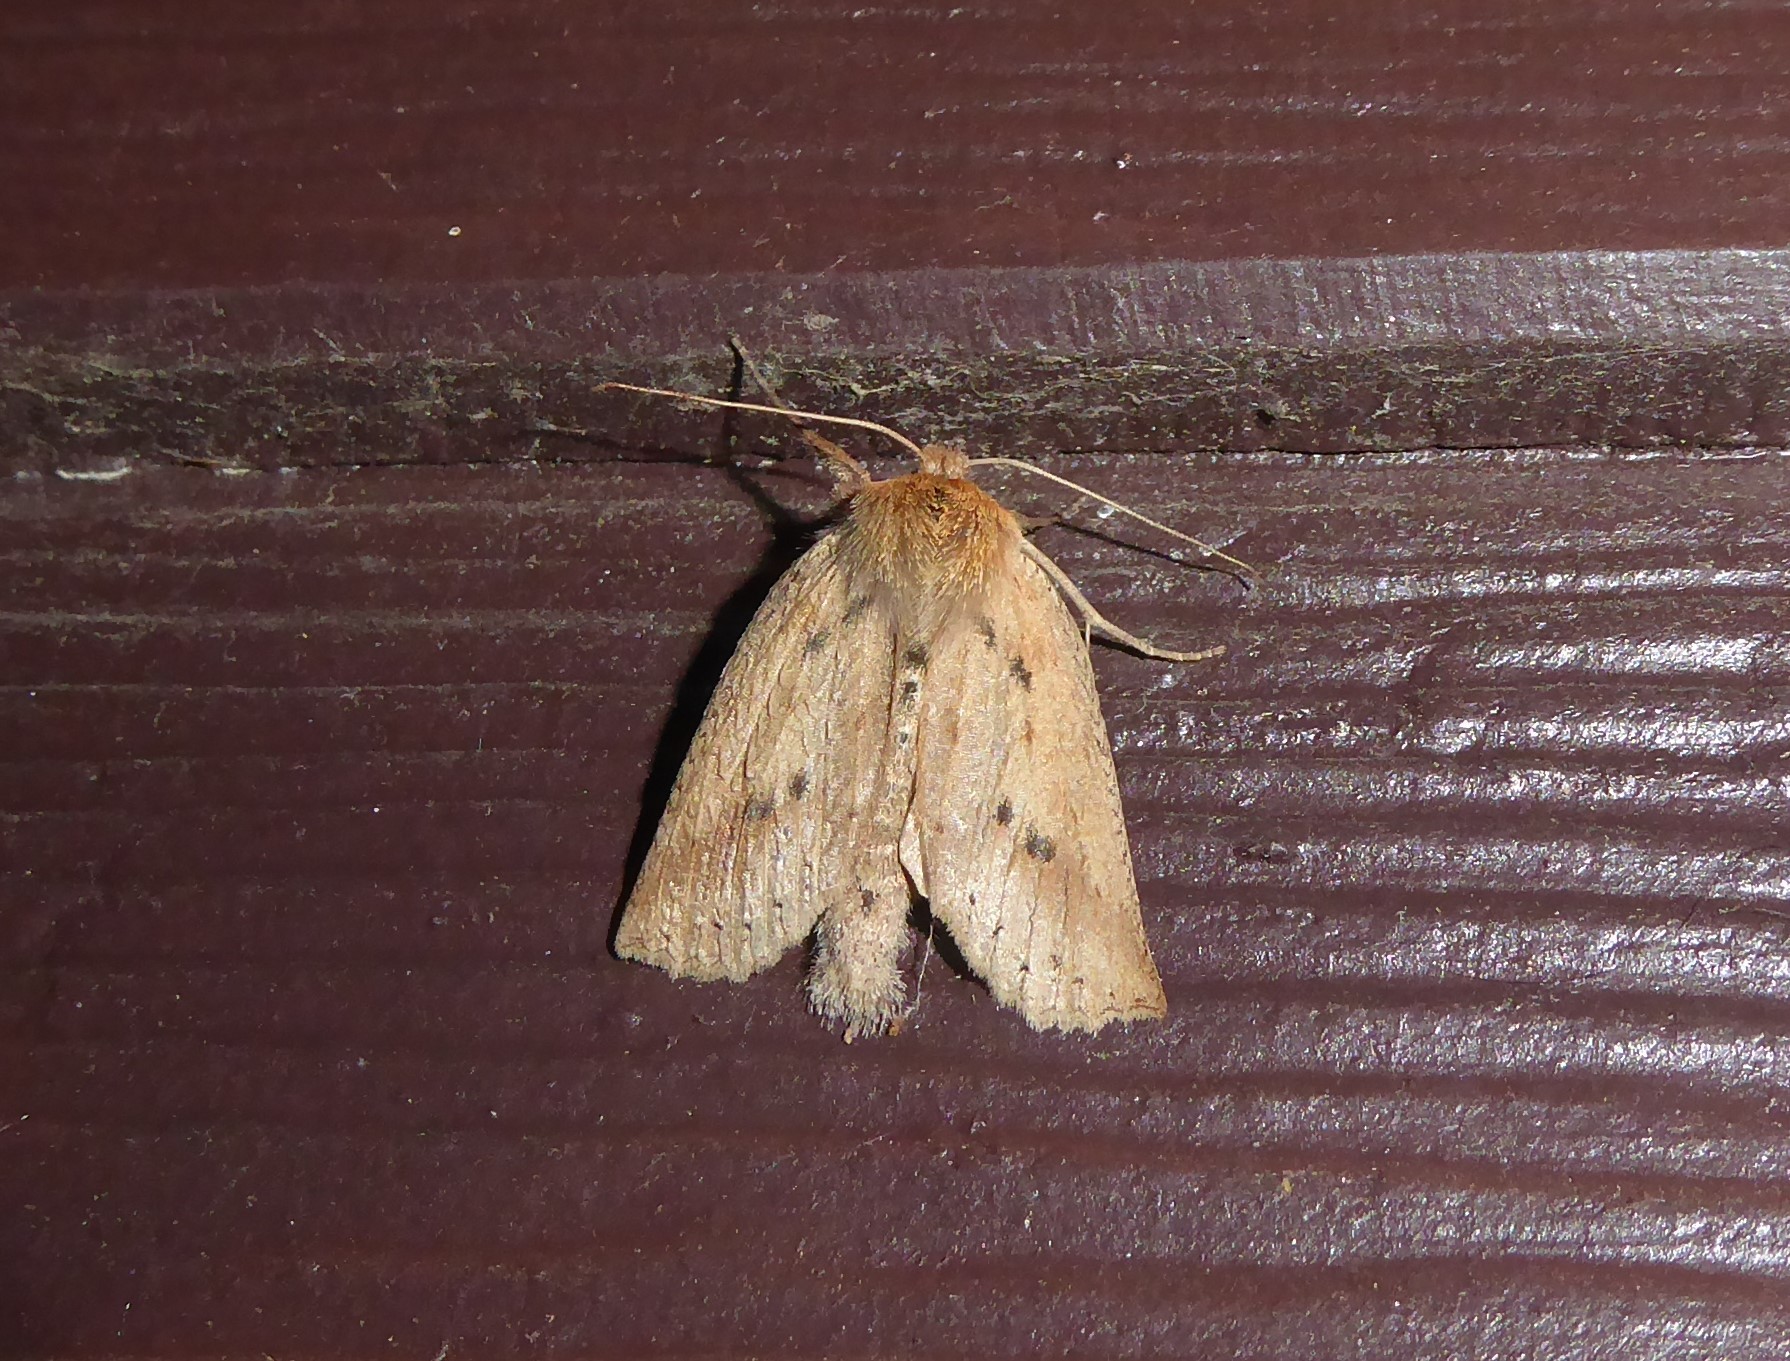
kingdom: Animalia
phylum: Arthropoda
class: Insecta
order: Lepidoptera
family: Geometridae
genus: Declana
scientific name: Declana leptomera
